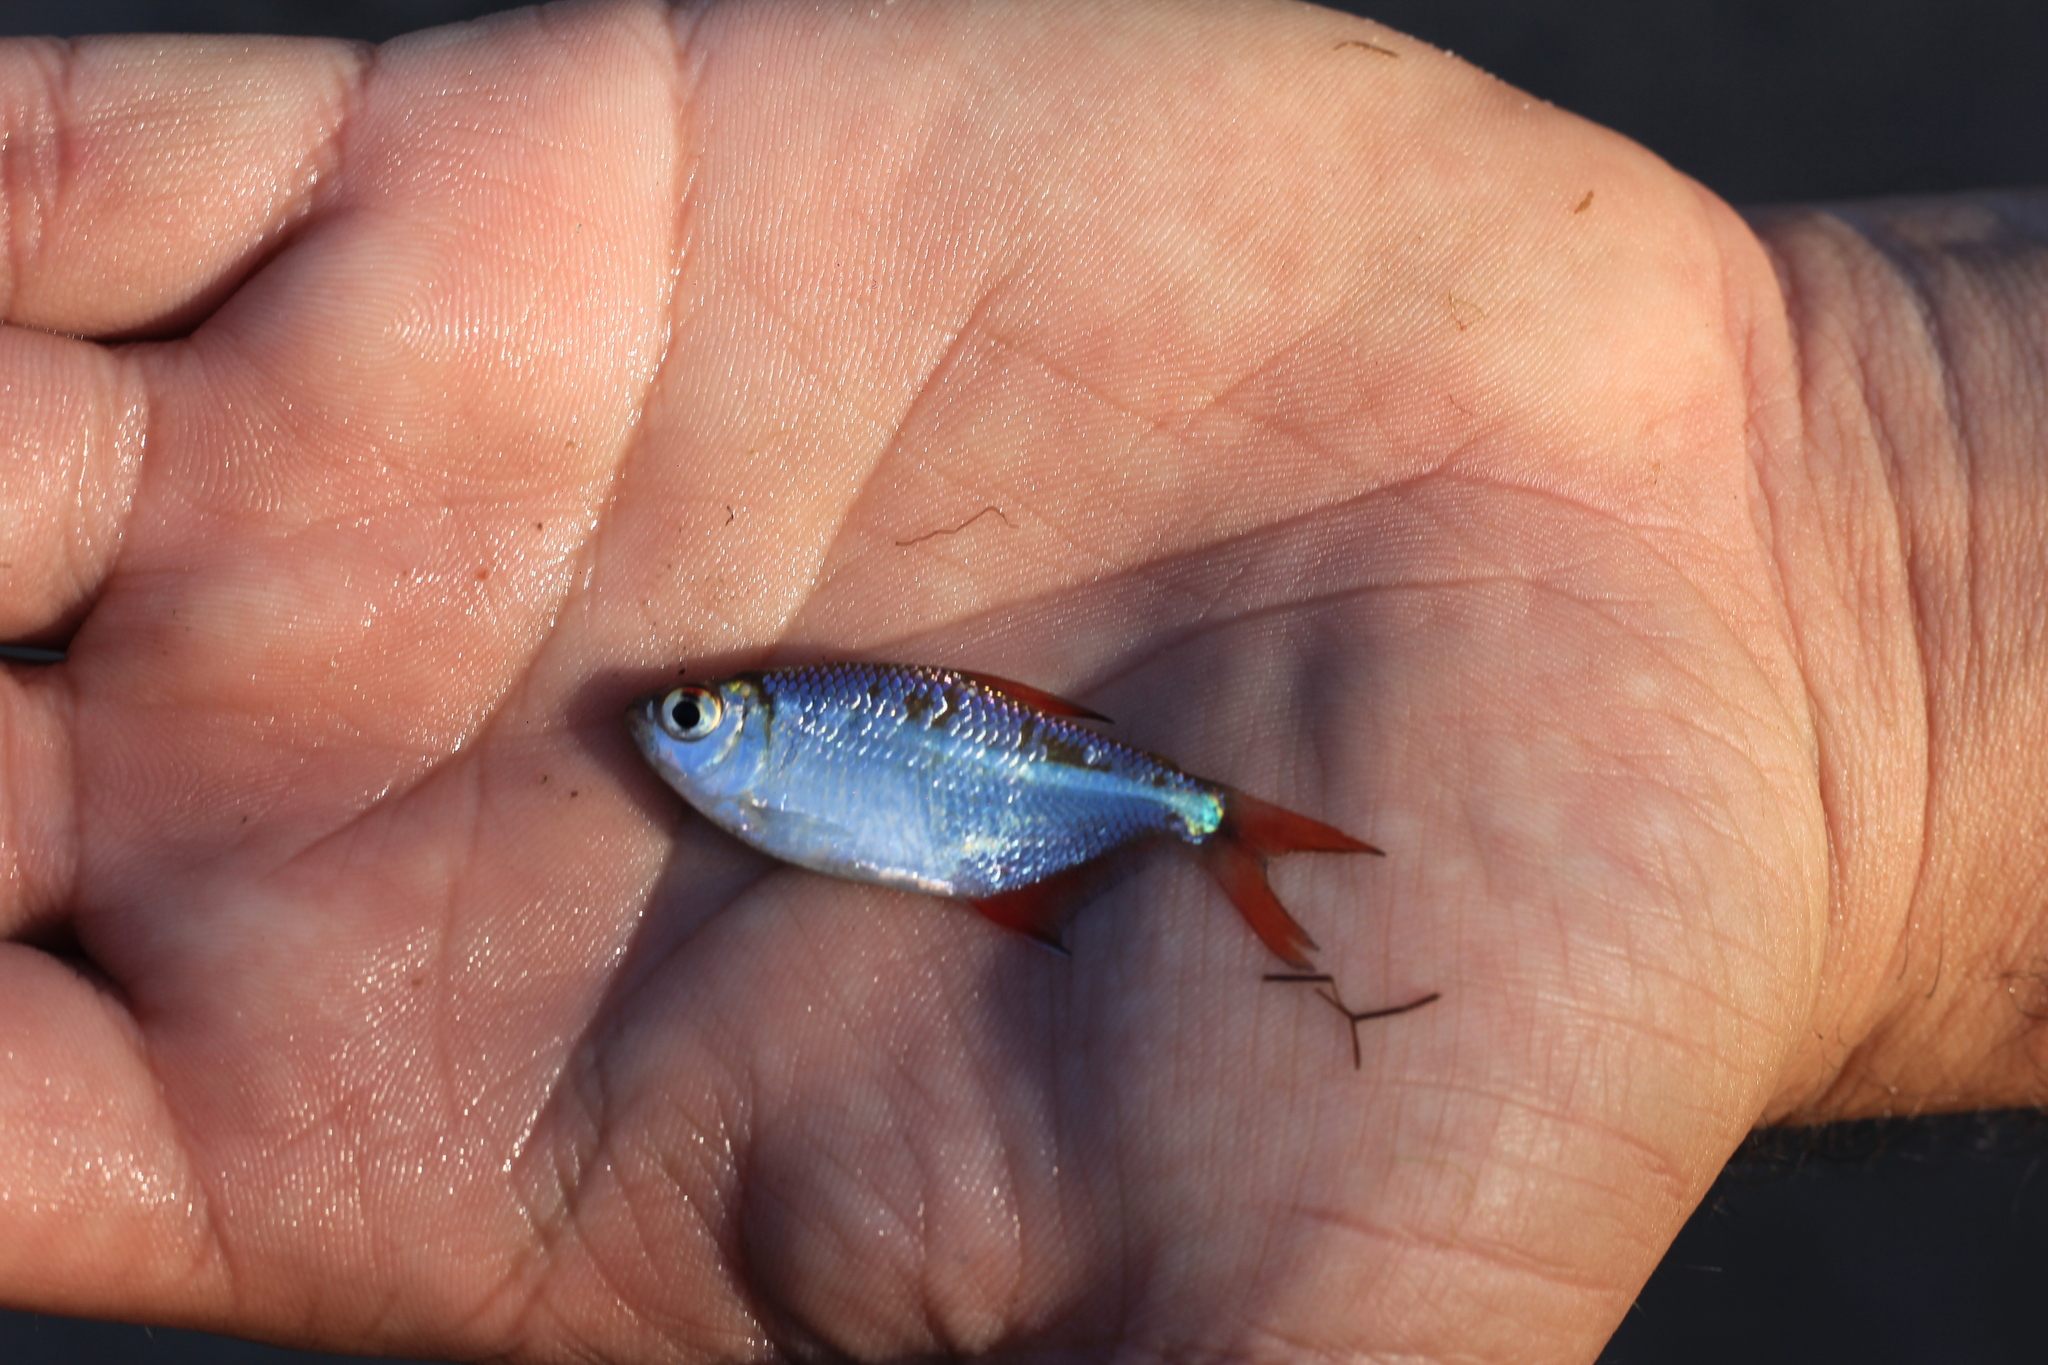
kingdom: Animalia
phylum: Chordata
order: Characiformes
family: Characidae
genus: Hyphessobrycon
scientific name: Hyphessobrycon anisitsi
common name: Buenos aires tetra
